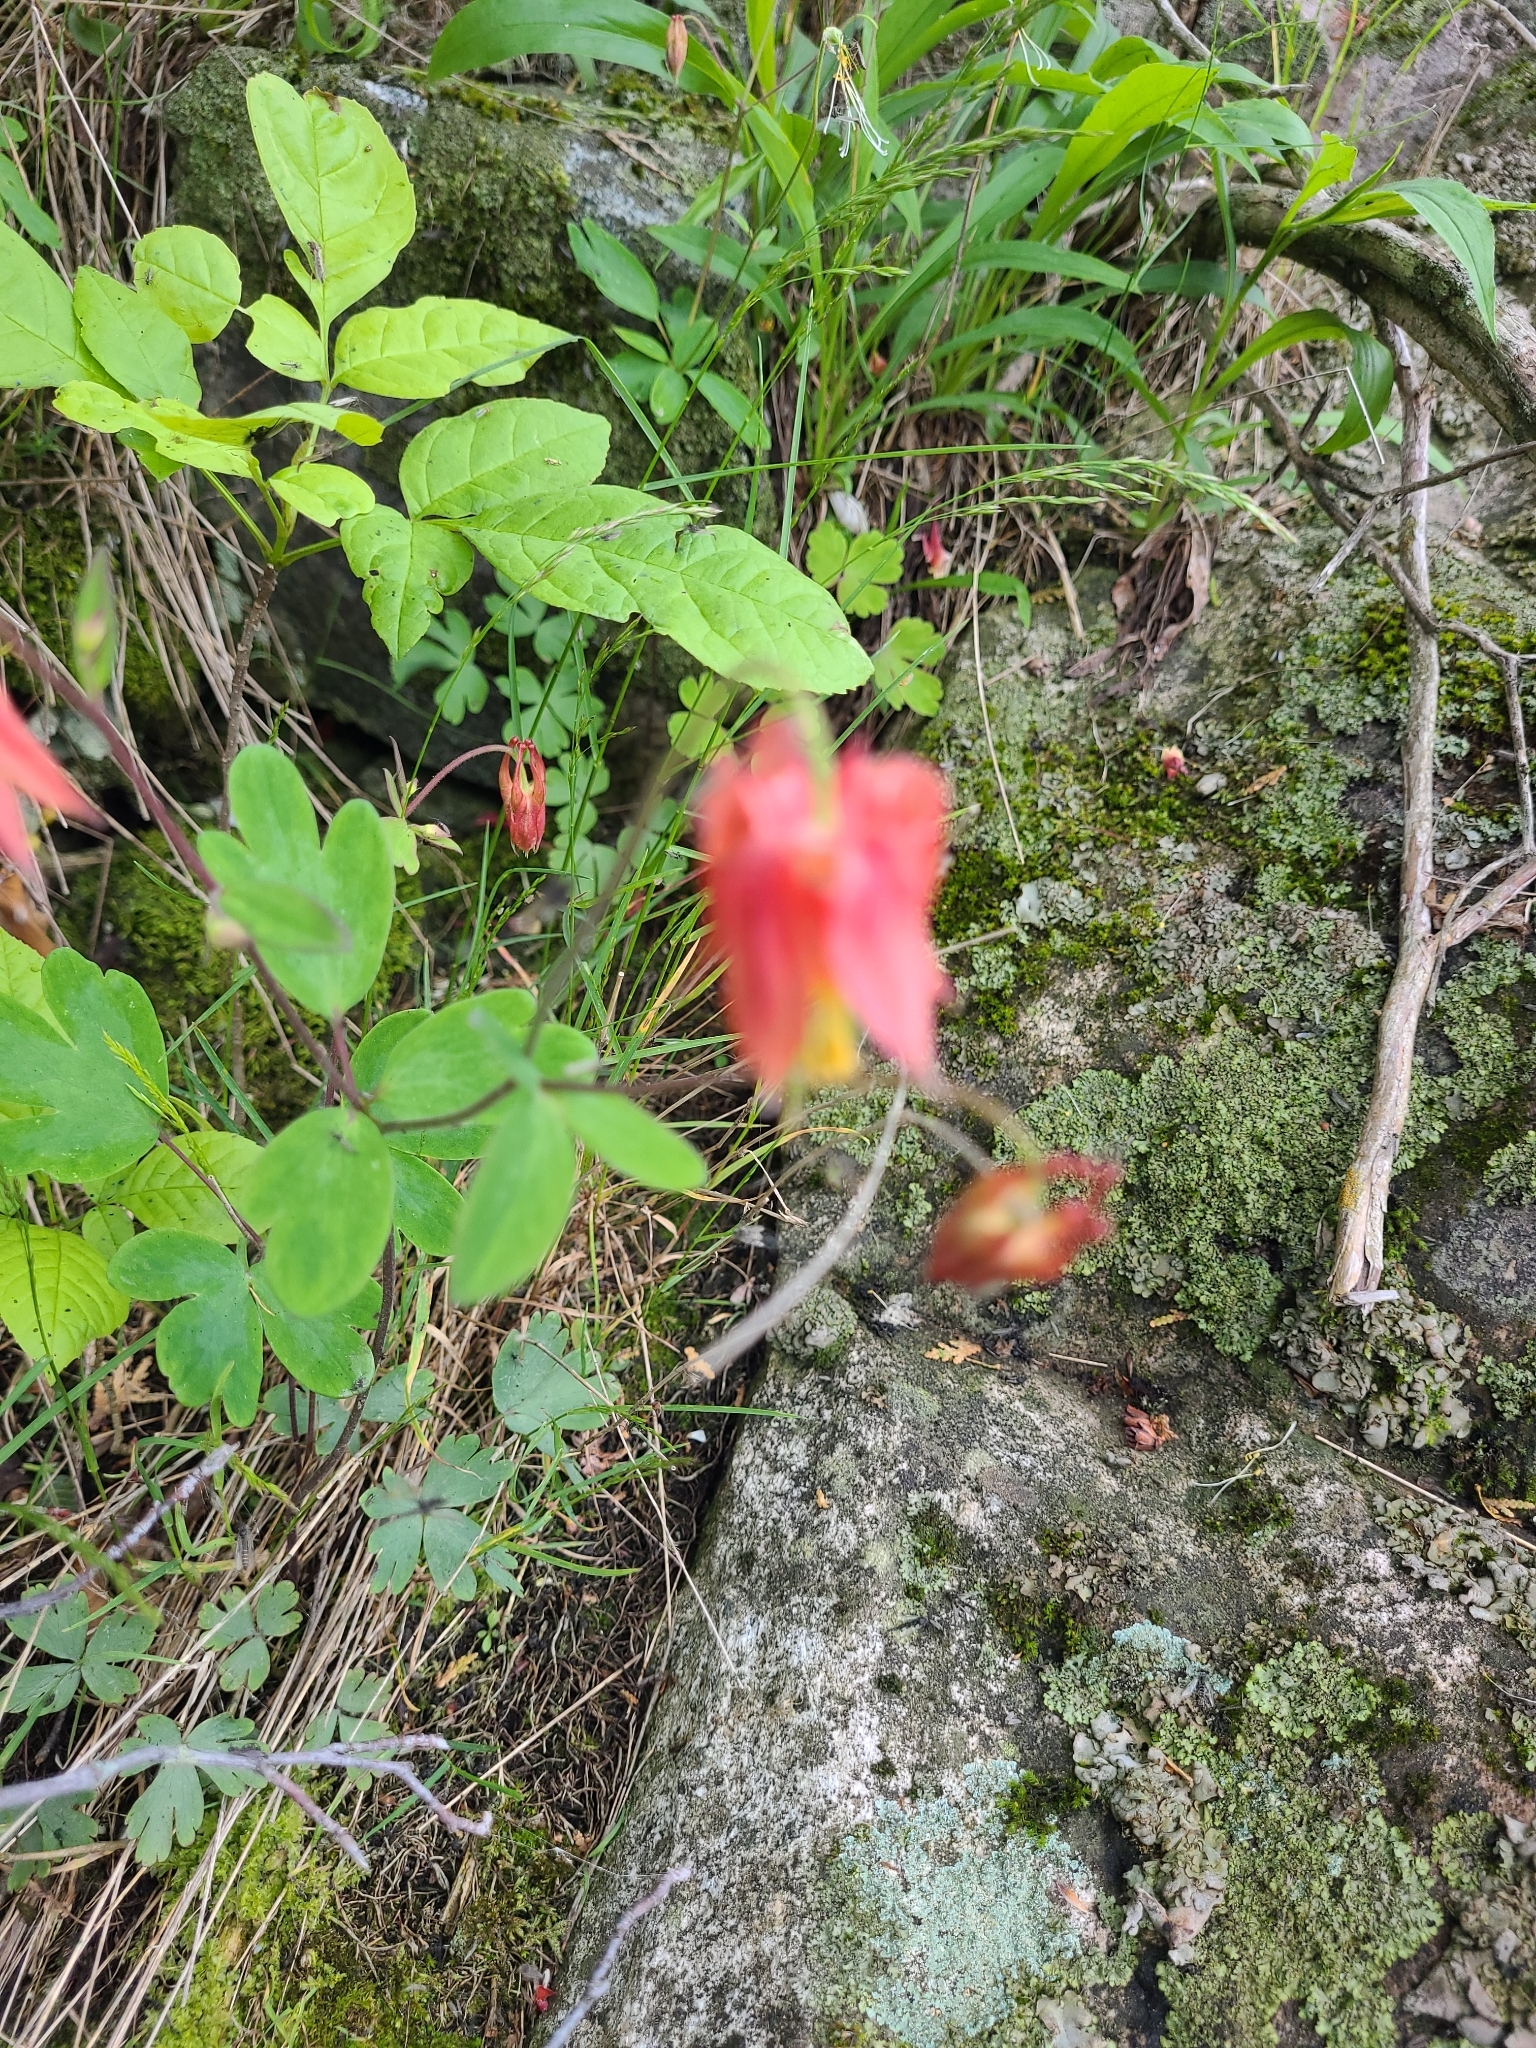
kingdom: Plantae
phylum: Tracheophyta
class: Magnoliopsida
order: Ranunculales
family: Ranunculaceae
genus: Aquilegia
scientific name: Aquilegia canadensis
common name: American columbine
